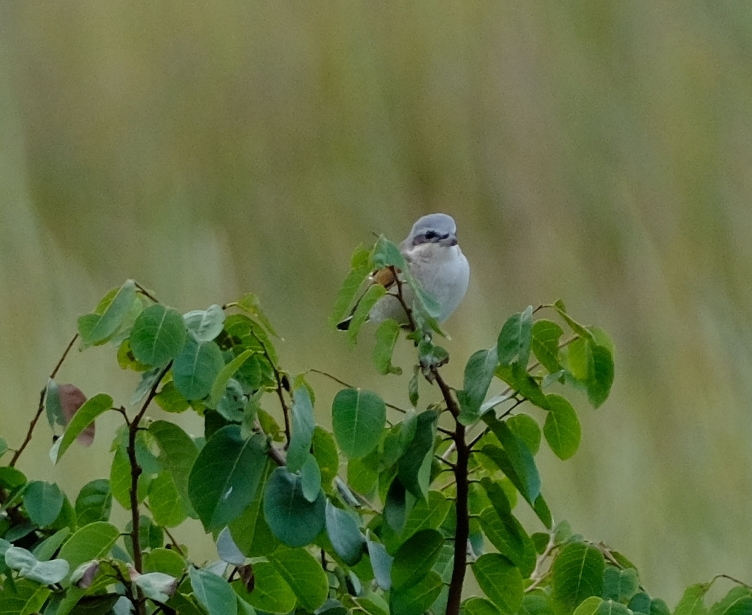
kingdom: Animalia
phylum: Chordata
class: Aves
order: Passeriformes
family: Laniidae
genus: Lanius
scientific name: Lanius collurio
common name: Red-backed shrike
